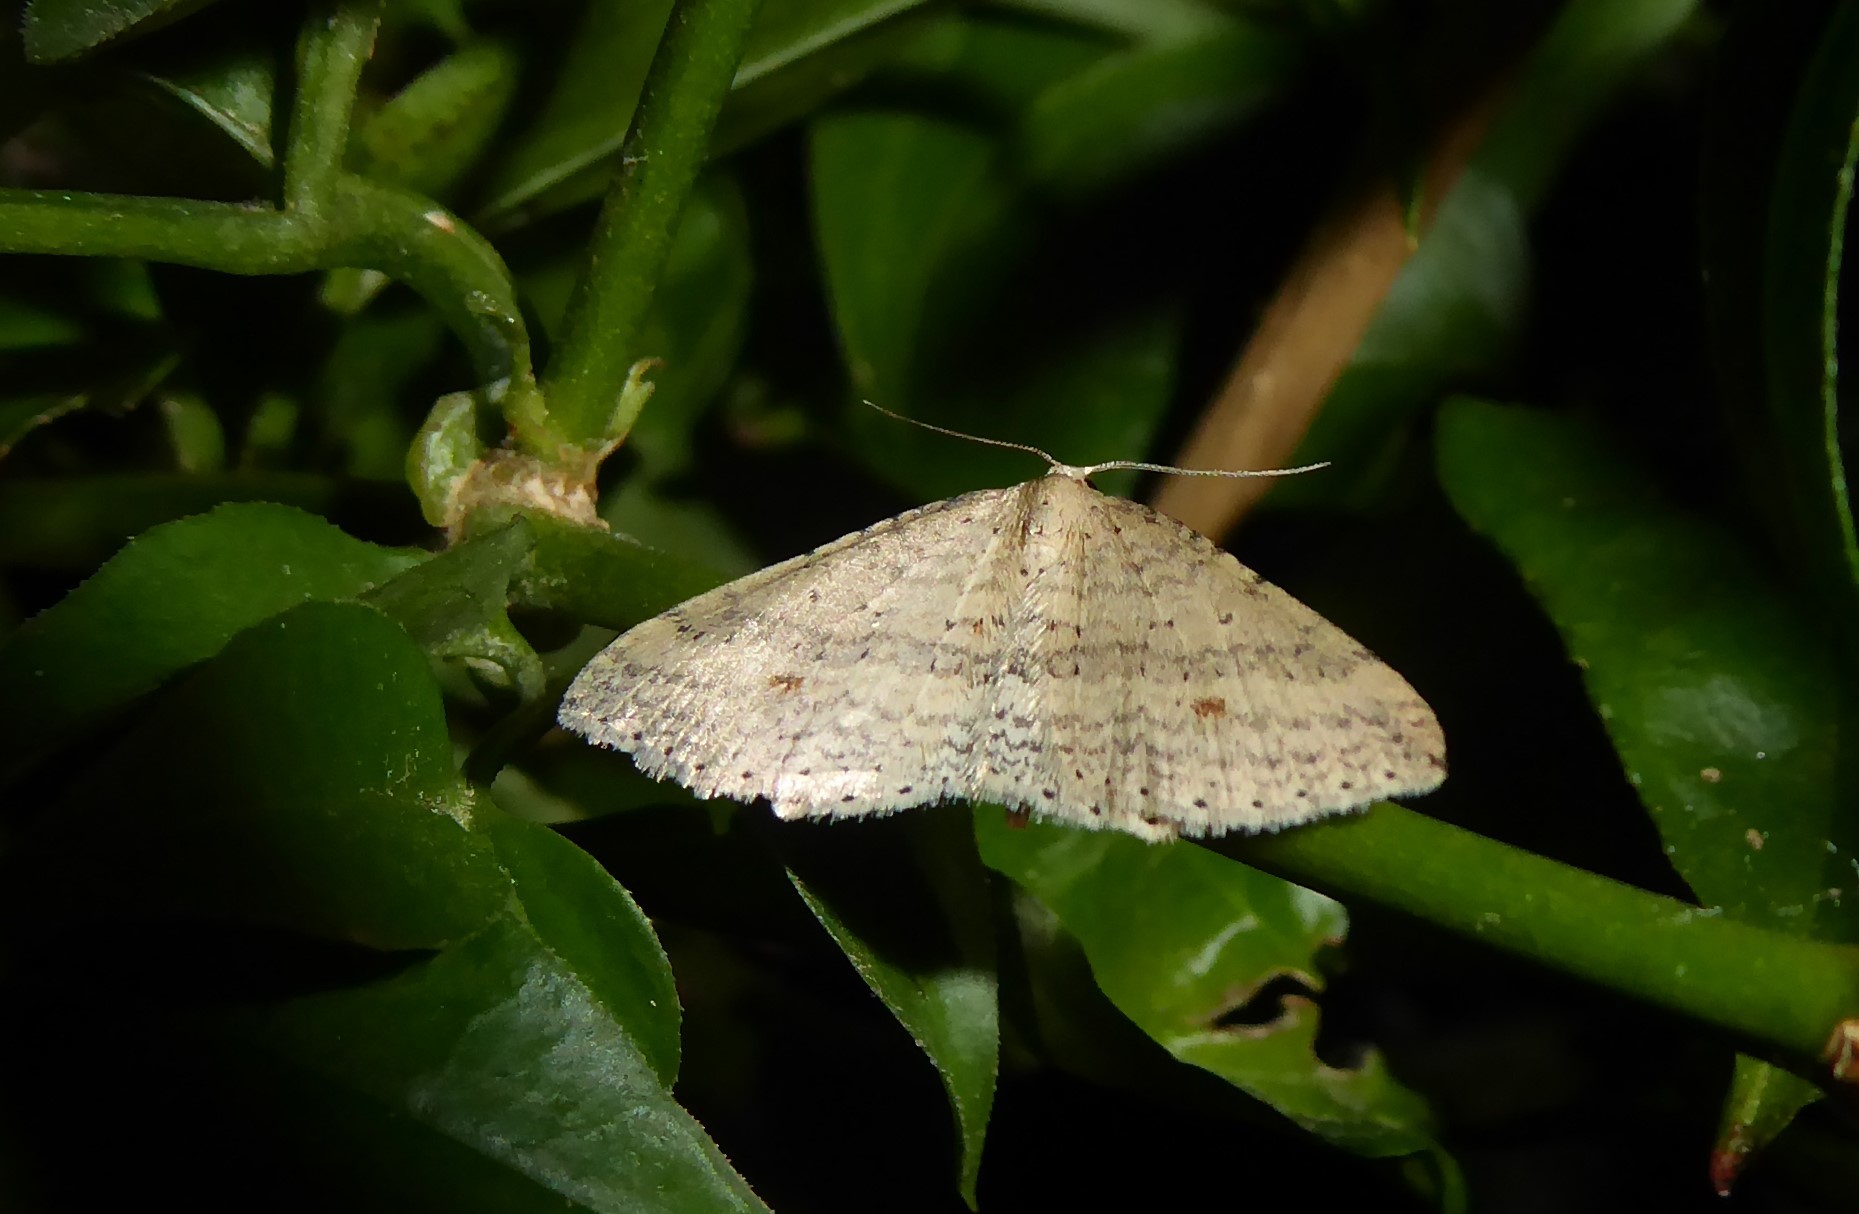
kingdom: Animalia
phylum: Arthropoda
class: Insecta
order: Lepidoptera
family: Geometridae
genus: Epicyme
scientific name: Epicyme rubropunctaria
